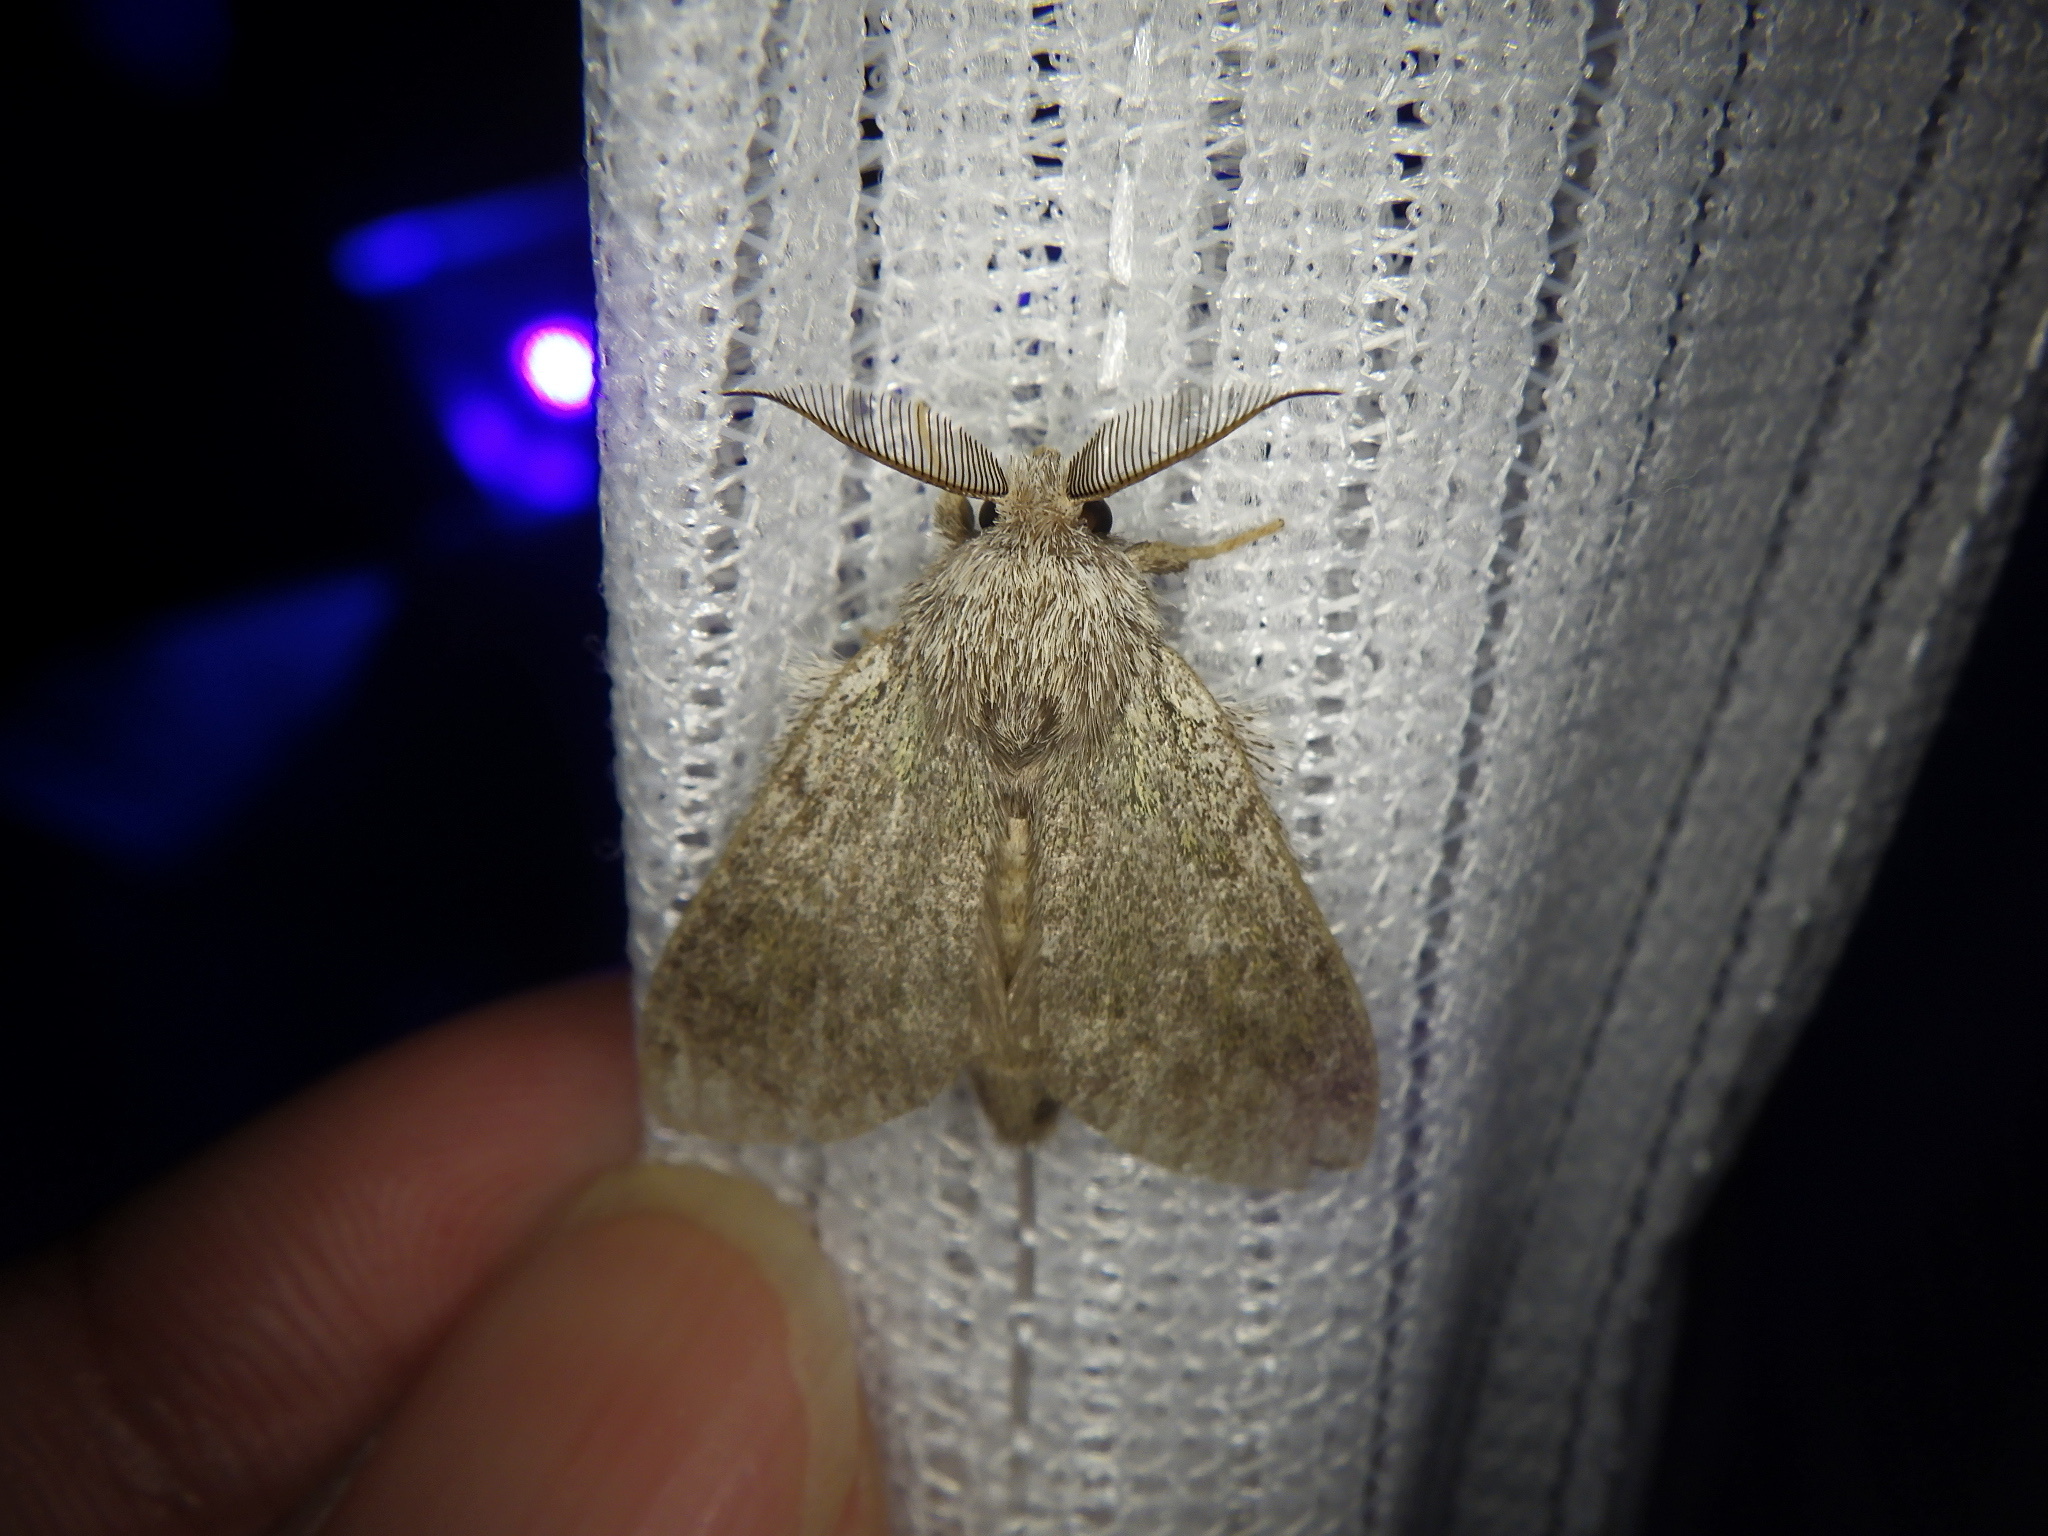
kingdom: Animalia
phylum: Arthropoda
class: Insecta
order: Lepidoptera
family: Notodontidae
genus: Syntypistis
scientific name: Syntypistis
